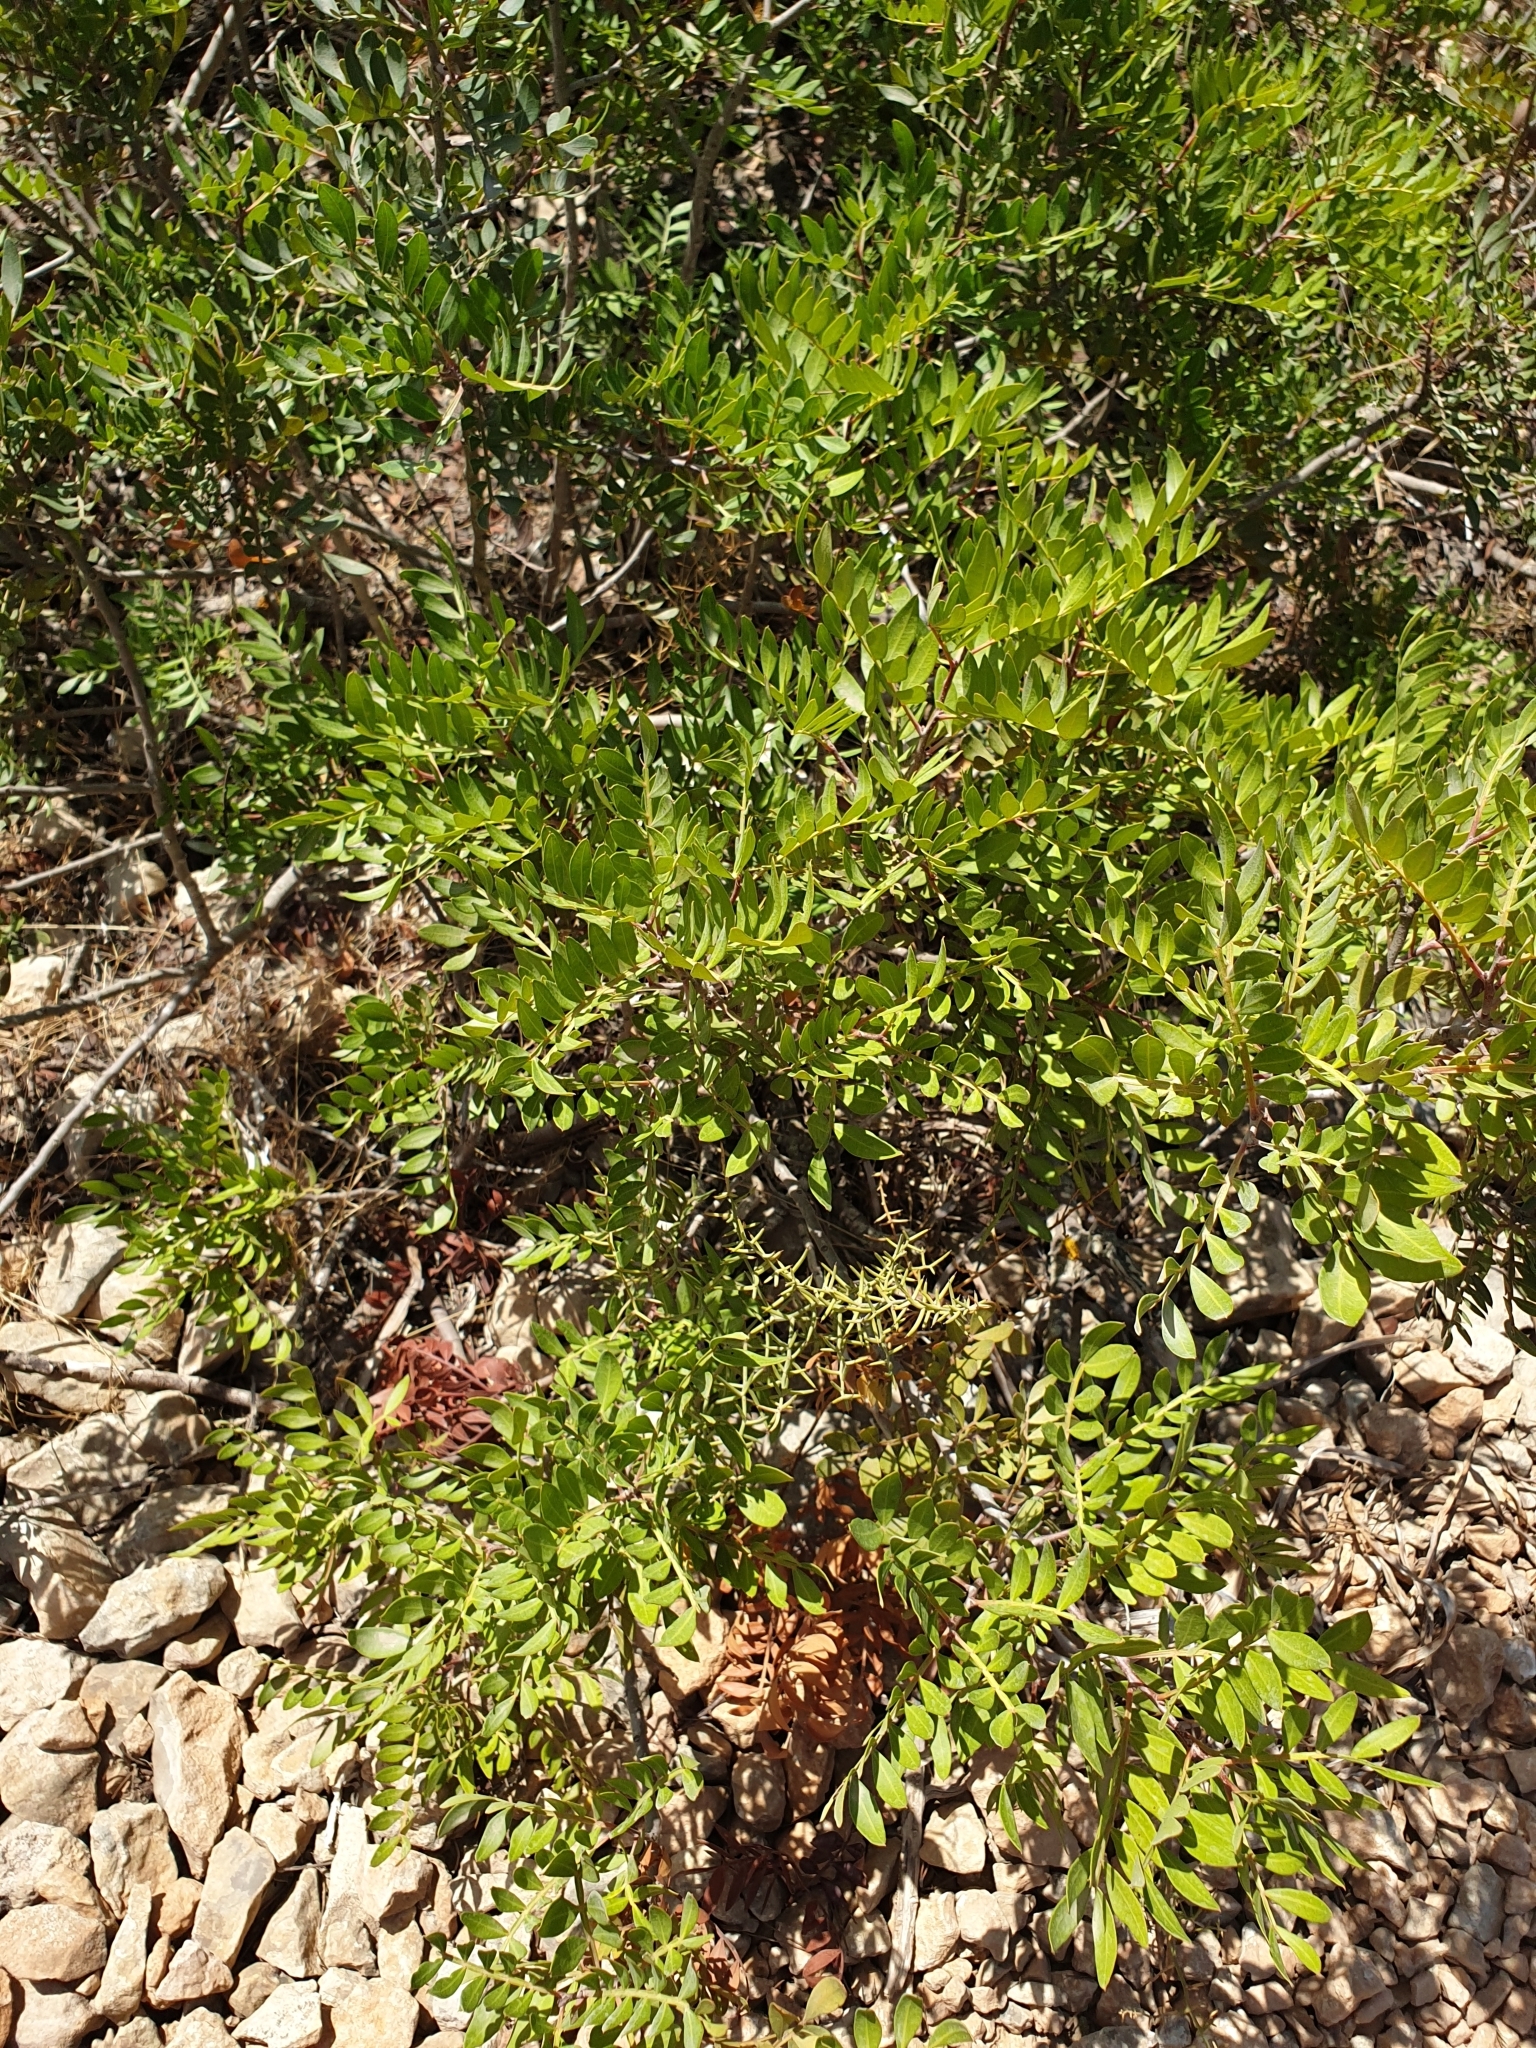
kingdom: Plantae
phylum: Tracheophyta
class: Magnoliopsida
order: Sapindales
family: Anacardiaceae
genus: Pistacia
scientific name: Pistacia lentiscus
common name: Lentisk
